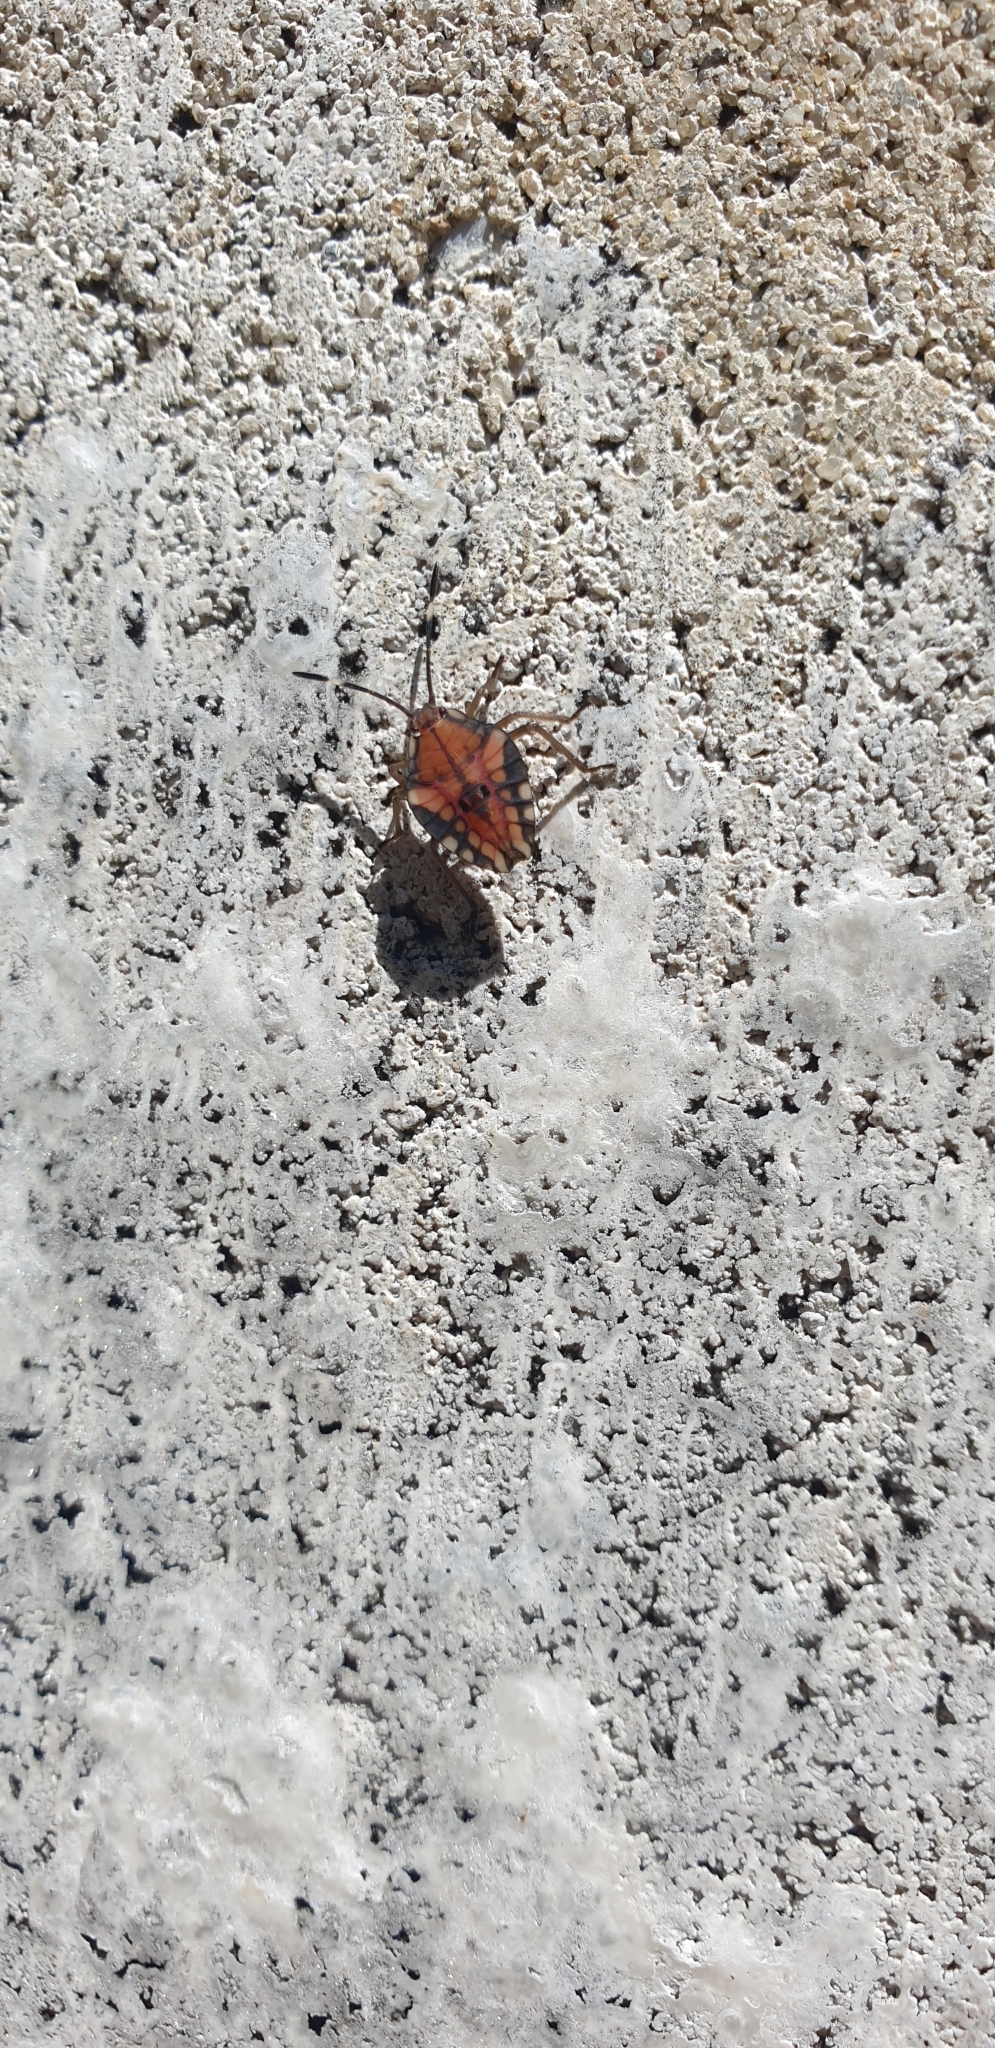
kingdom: Animalia
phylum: Arthropoda
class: Insecta
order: Hemiptera
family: Tessaratomidae
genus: Lyramorpha
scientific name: Lyramorpha rosea
